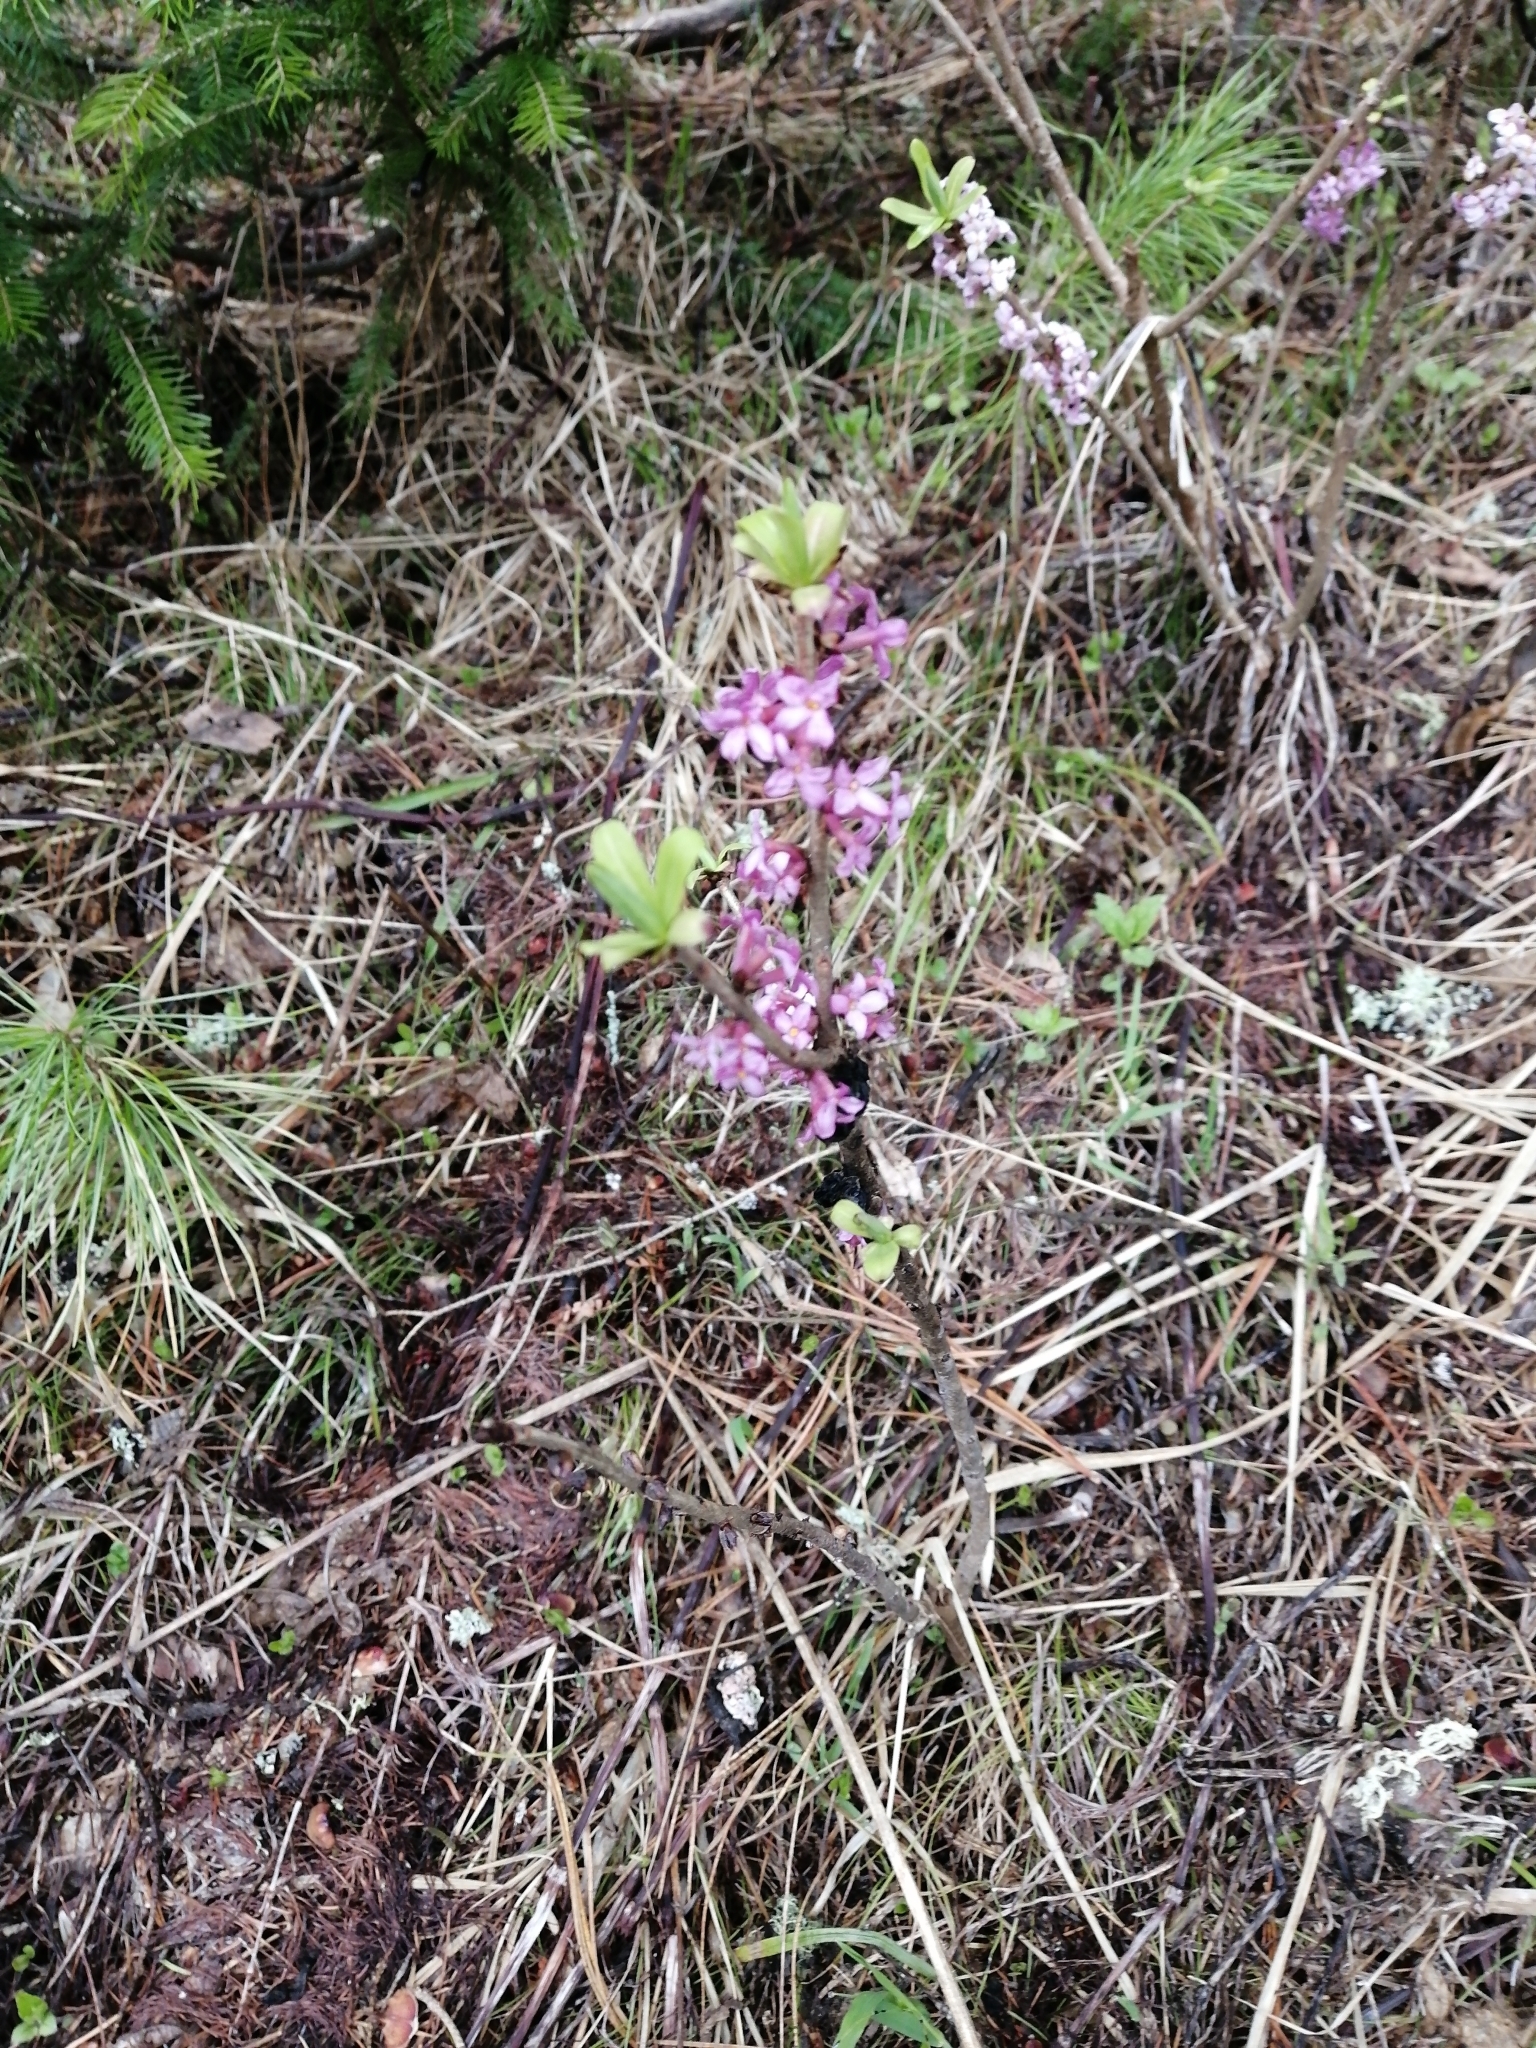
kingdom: Plantae
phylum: Tracheophyta
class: Magnoliopsida
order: Malvales
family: Thymelaeaceae
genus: Daphne
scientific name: Daphne mezereum
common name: Mezereon
